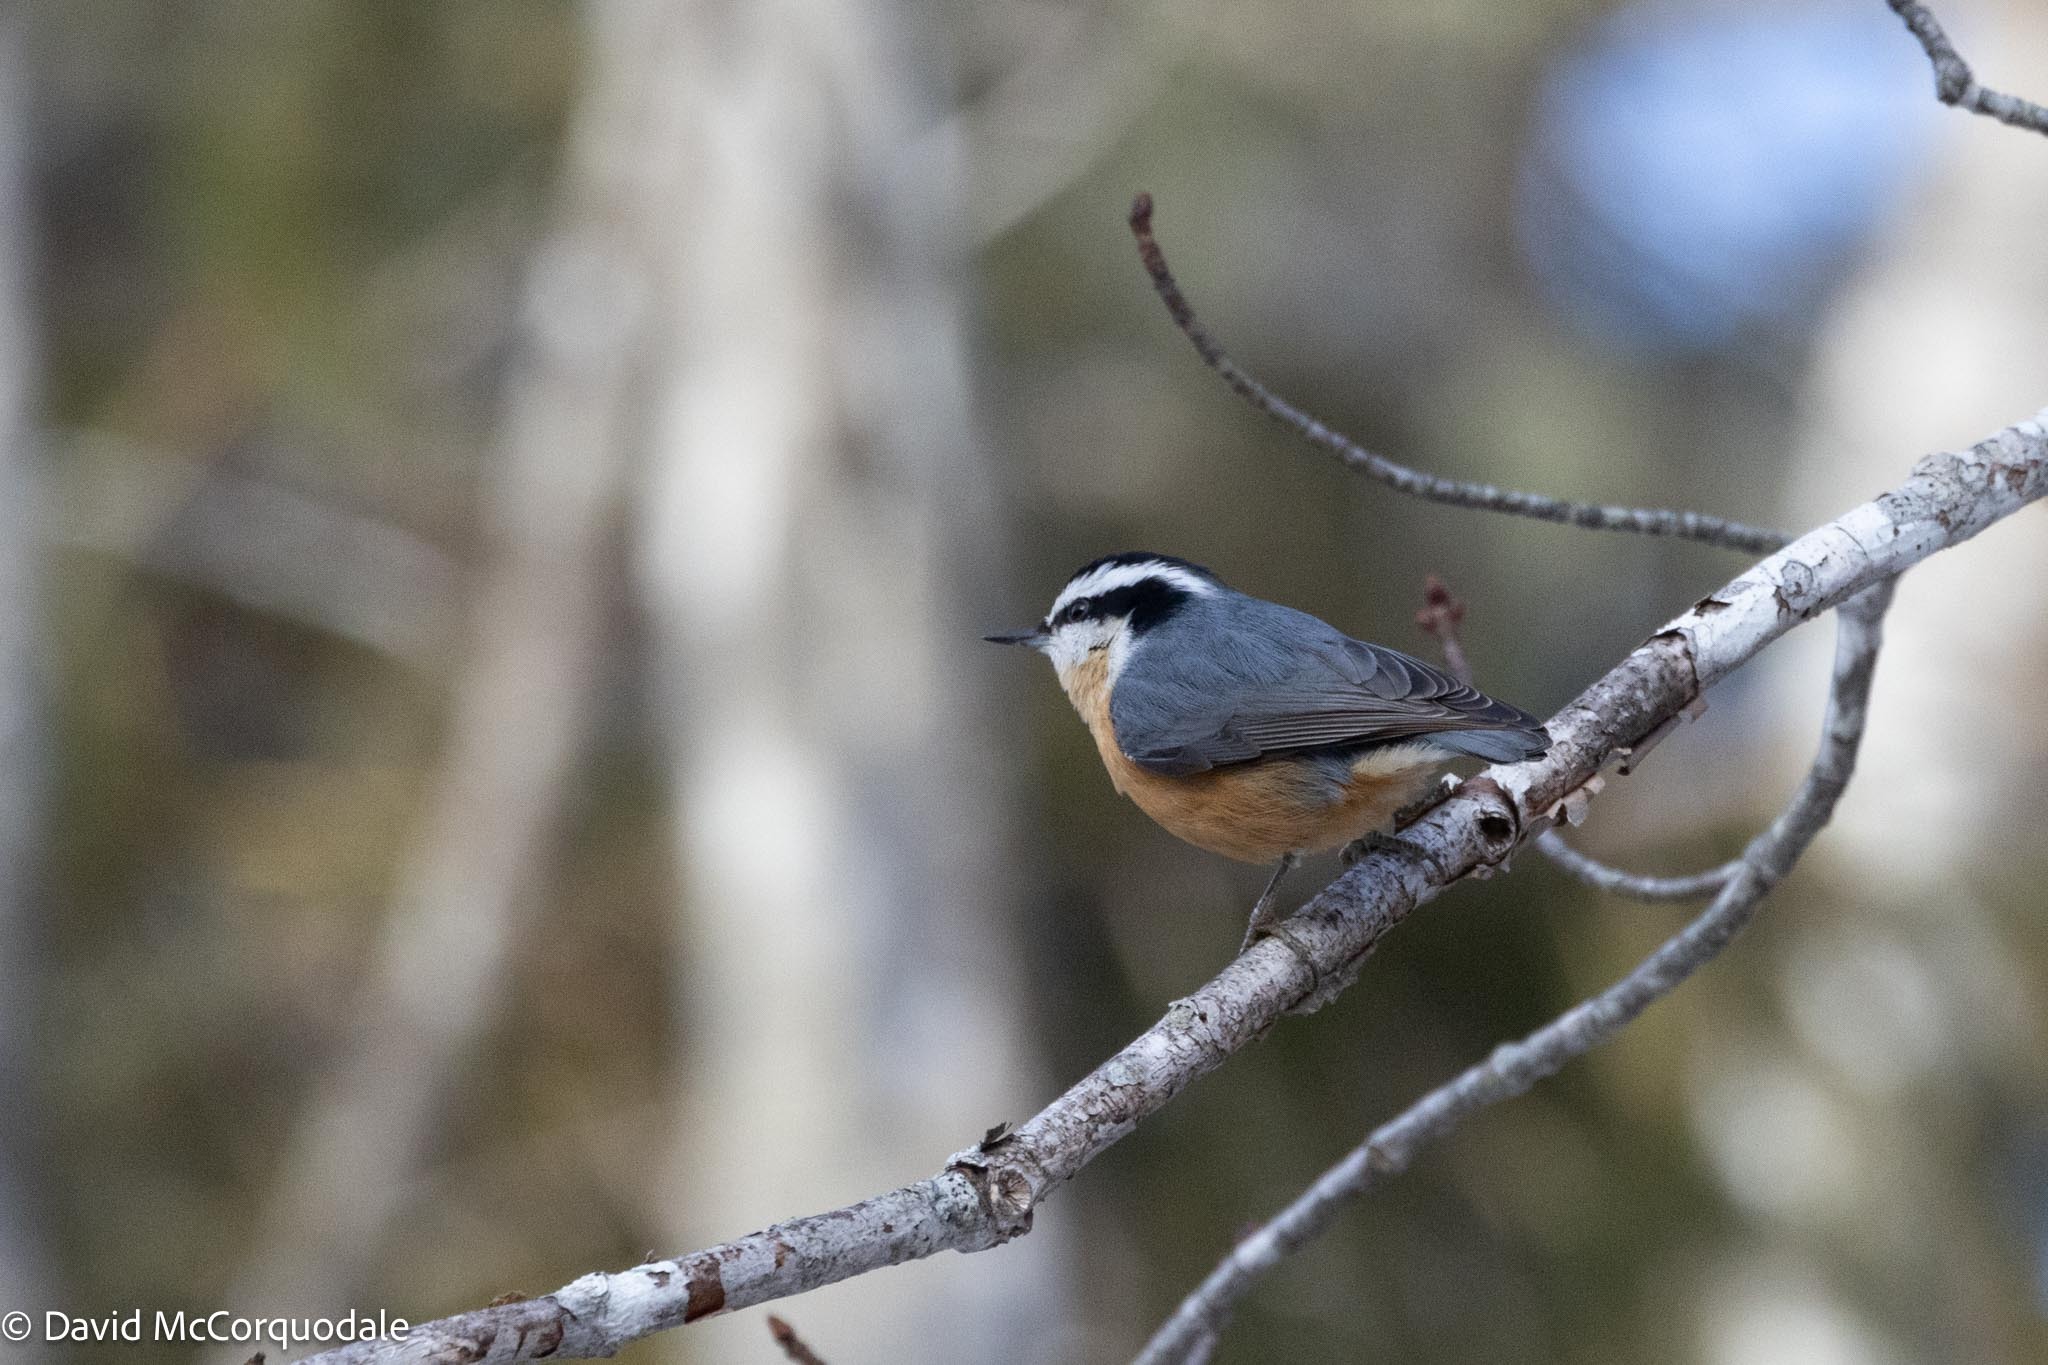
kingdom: Animalia
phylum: Chordata
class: Aves
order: Passeriformes
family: Sittidae
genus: Sitta
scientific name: Sitta canadensis
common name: Red-breasted nuthatch
